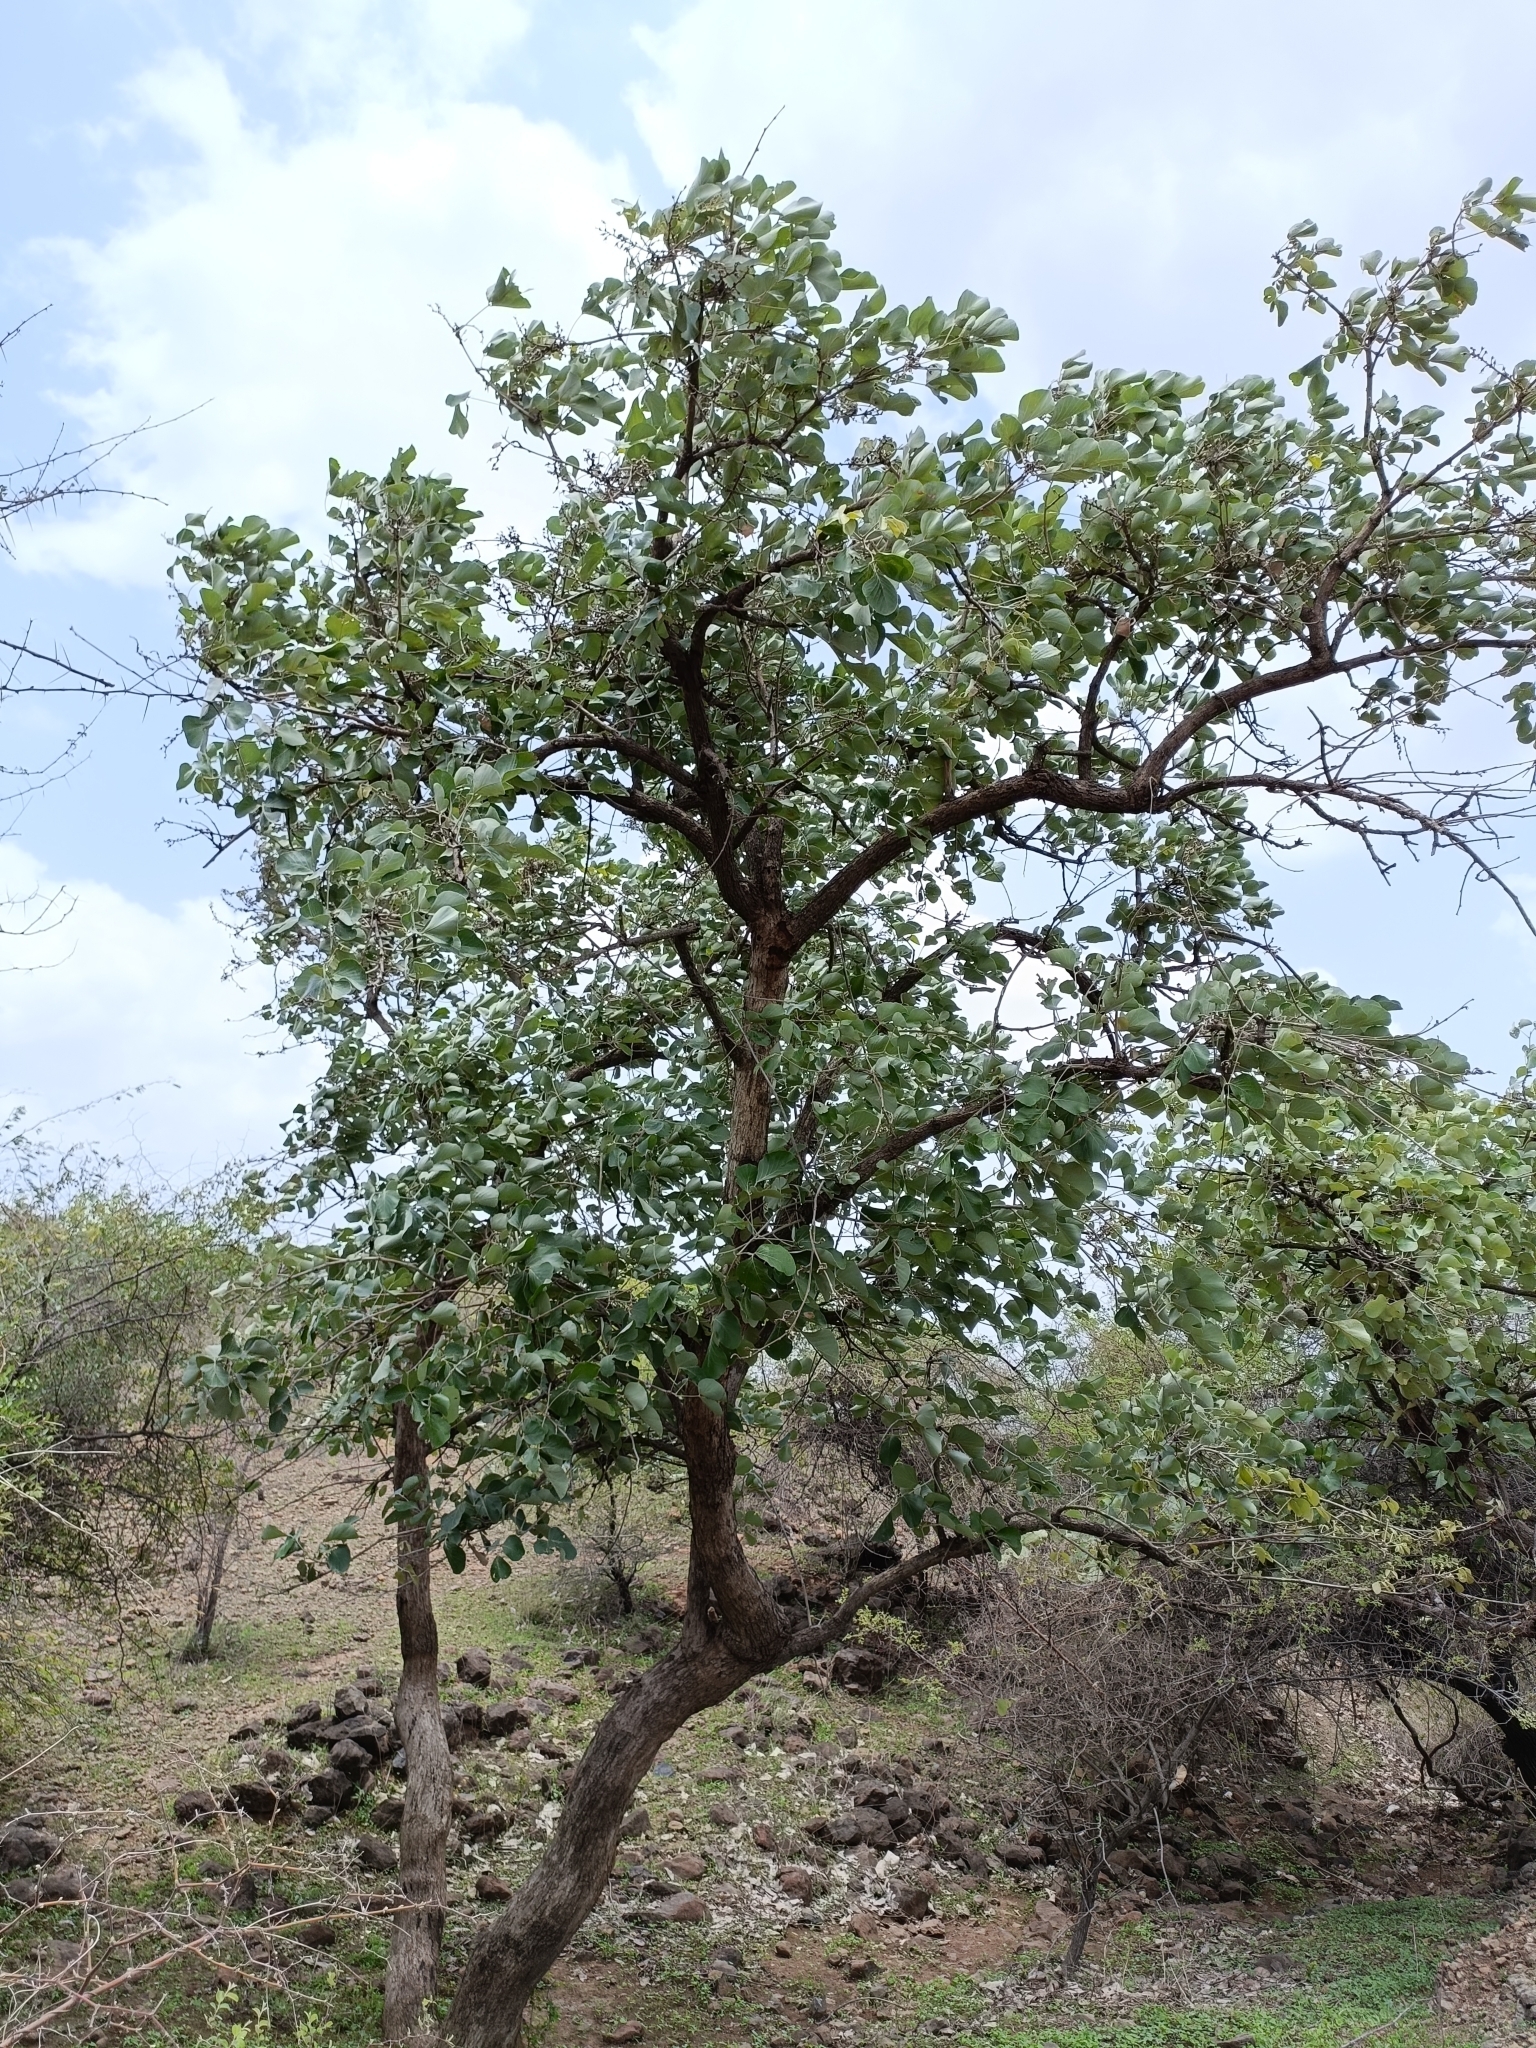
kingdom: Plantae
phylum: Tracheophyta
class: Magnoliopsida
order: Fabales
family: Fabaceae
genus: Butea
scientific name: Butea monosperma
